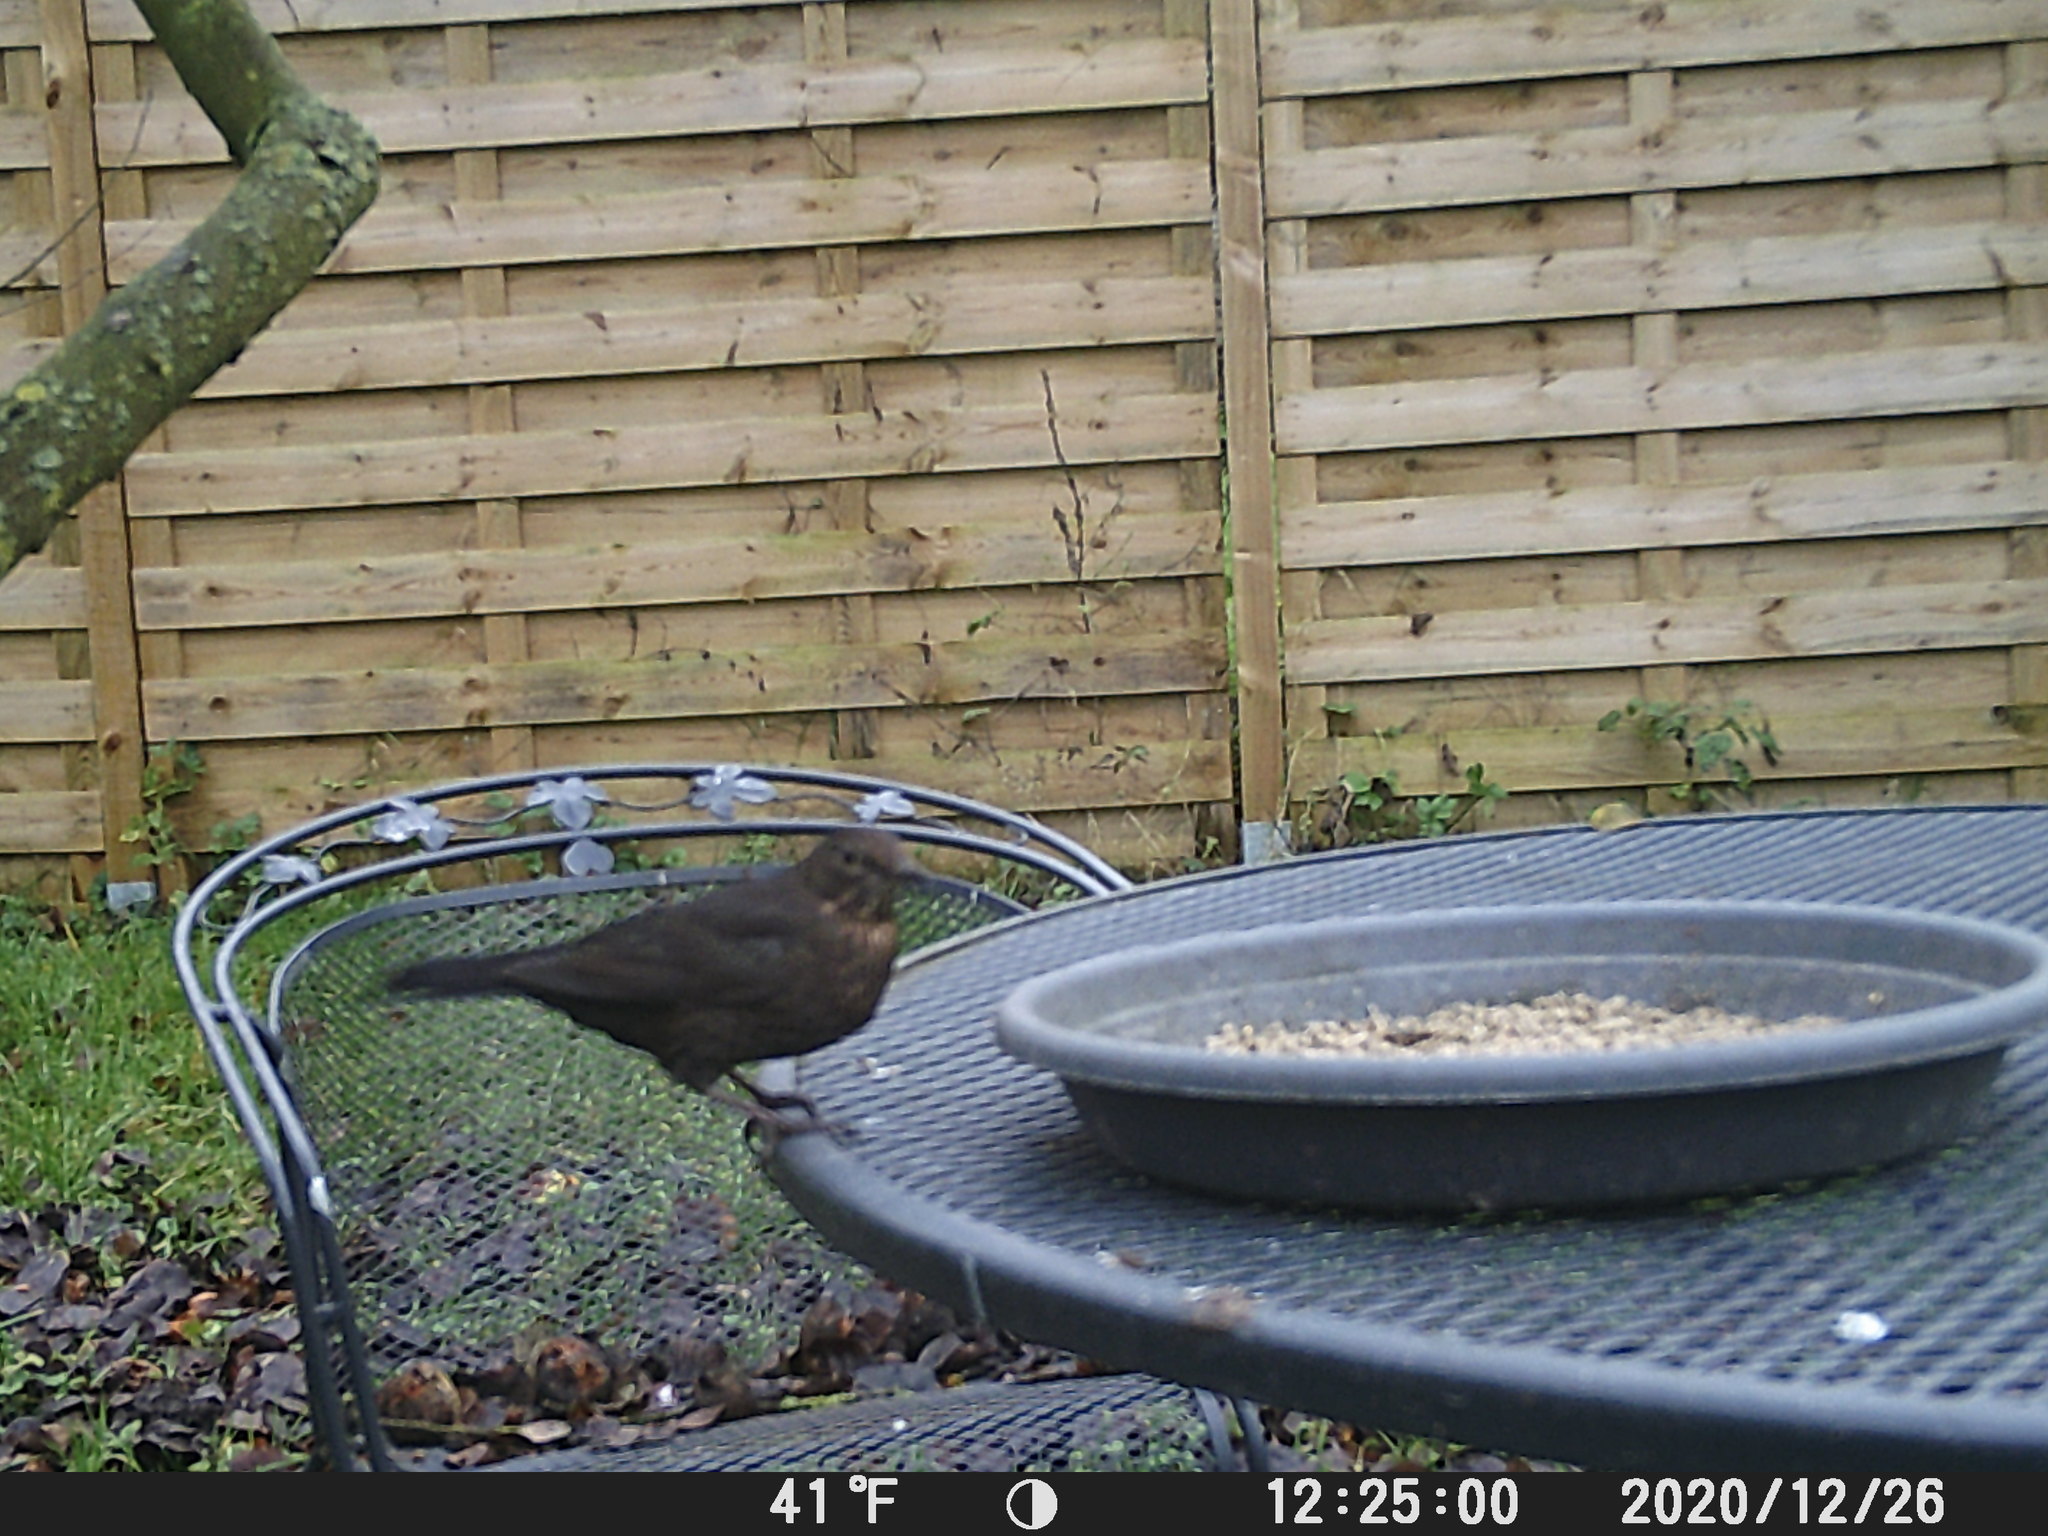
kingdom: Animalia
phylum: Chordata
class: Aves
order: Passeriformes
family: Turdidae
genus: Turdus
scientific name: Turdus merula
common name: Common blackbird
